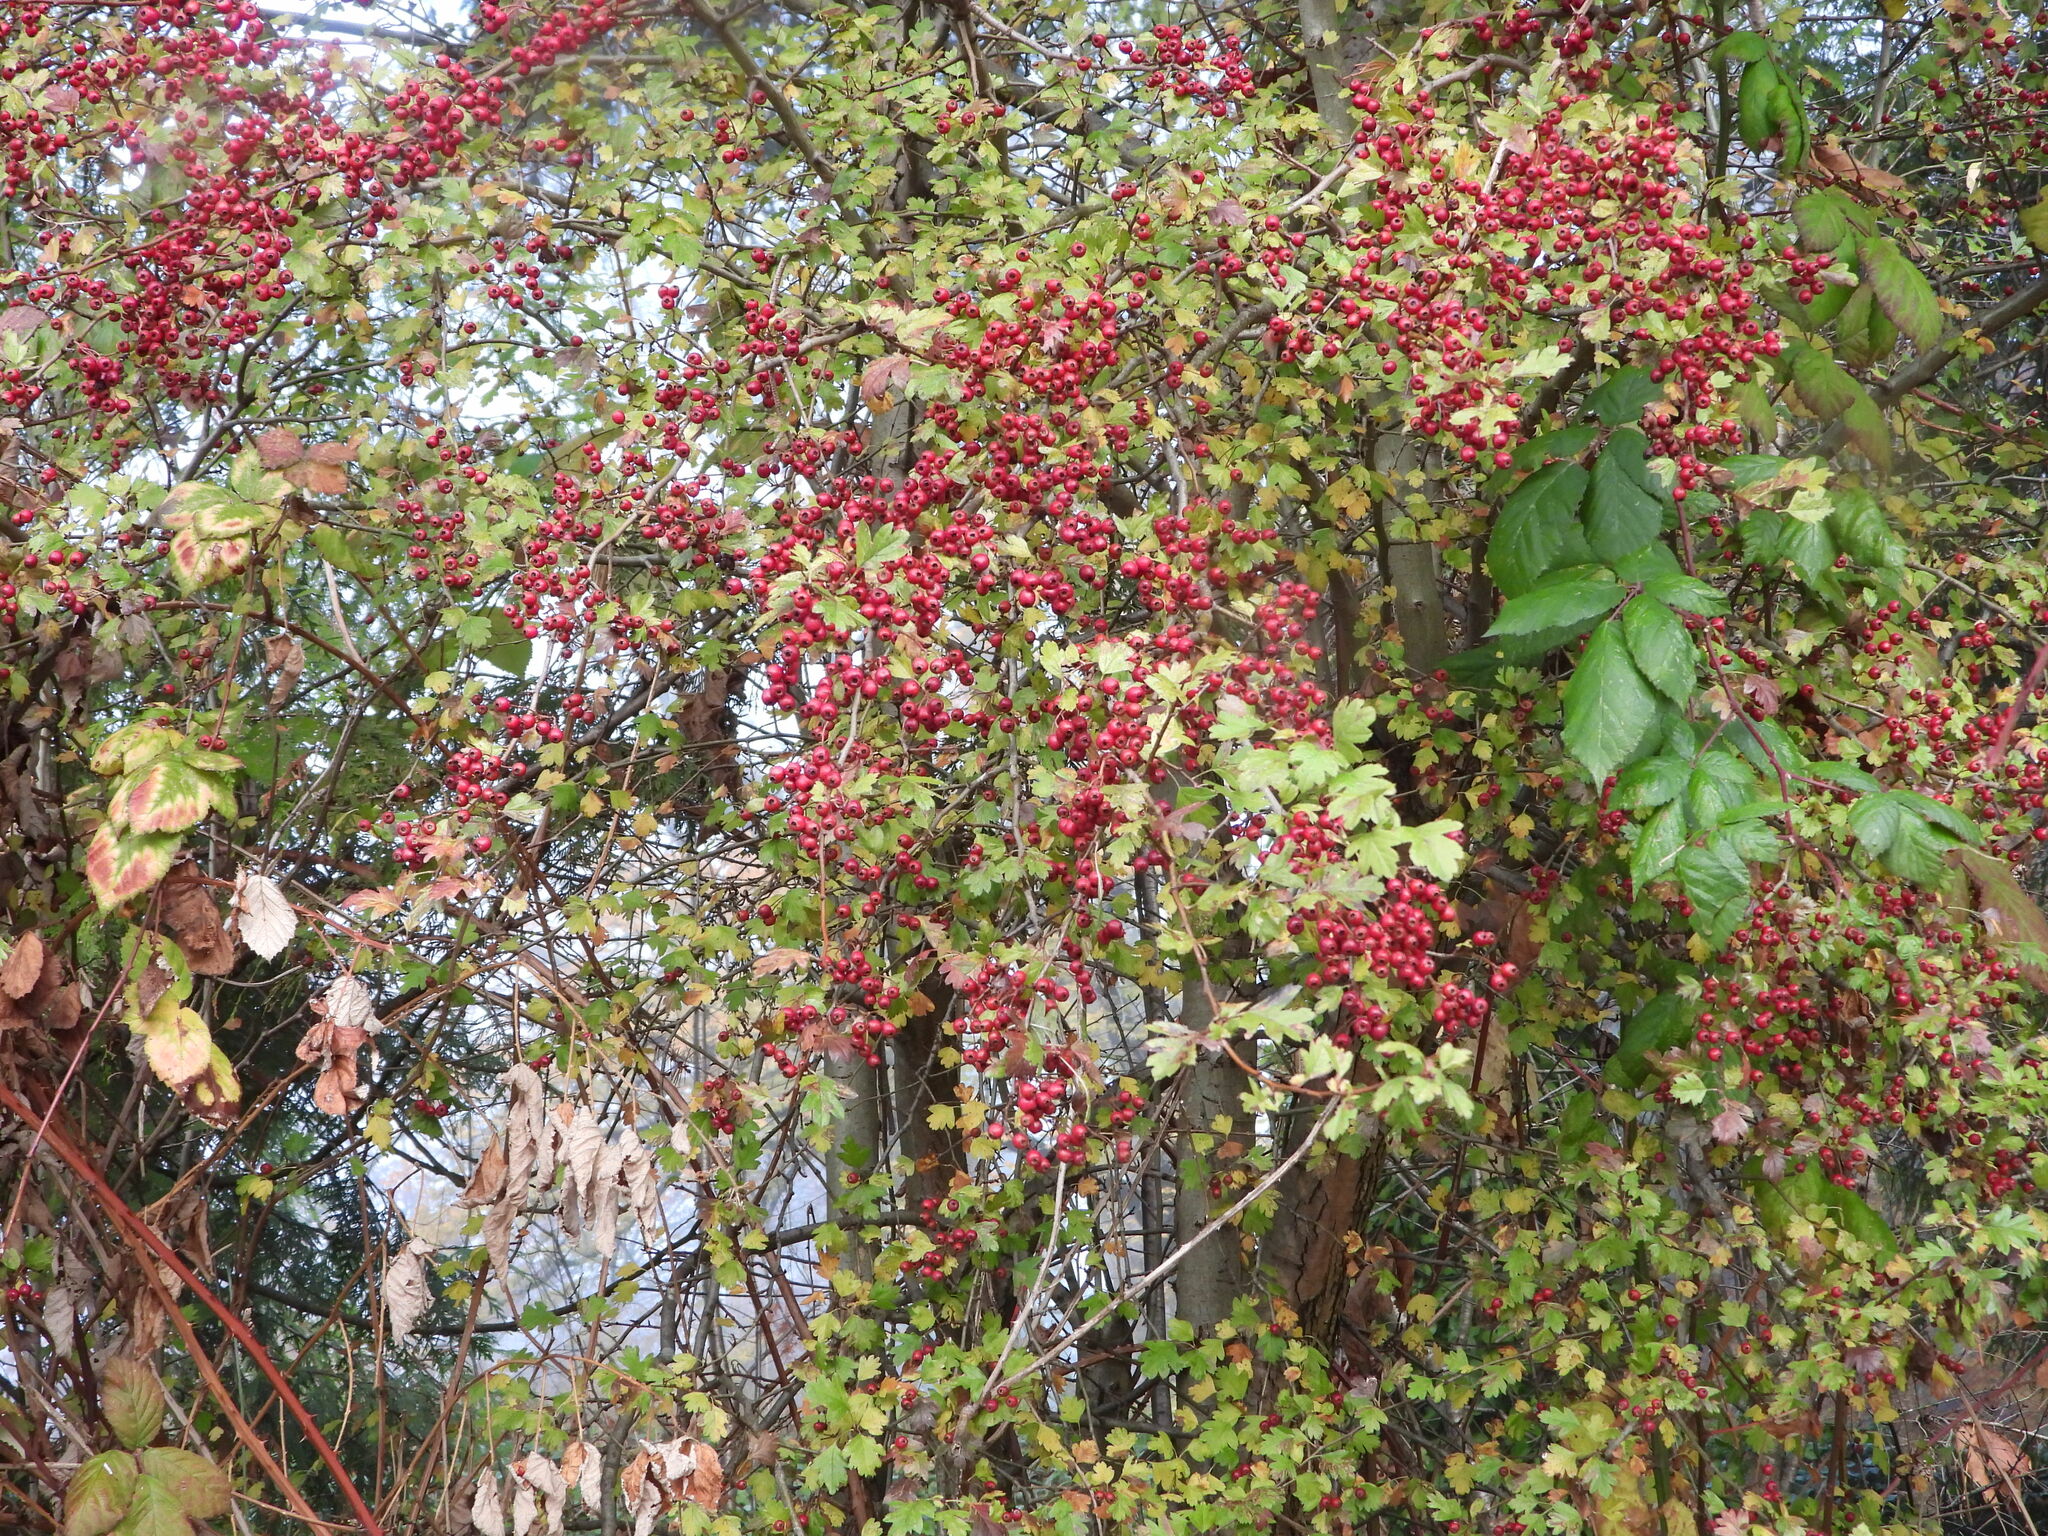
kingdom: Plantae
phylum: Tracheophyta
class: Magnoliopsida
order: Rosales
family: Rosaceae
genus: Crataegus
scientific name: Crataegus monogyna
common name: Hawthorn
